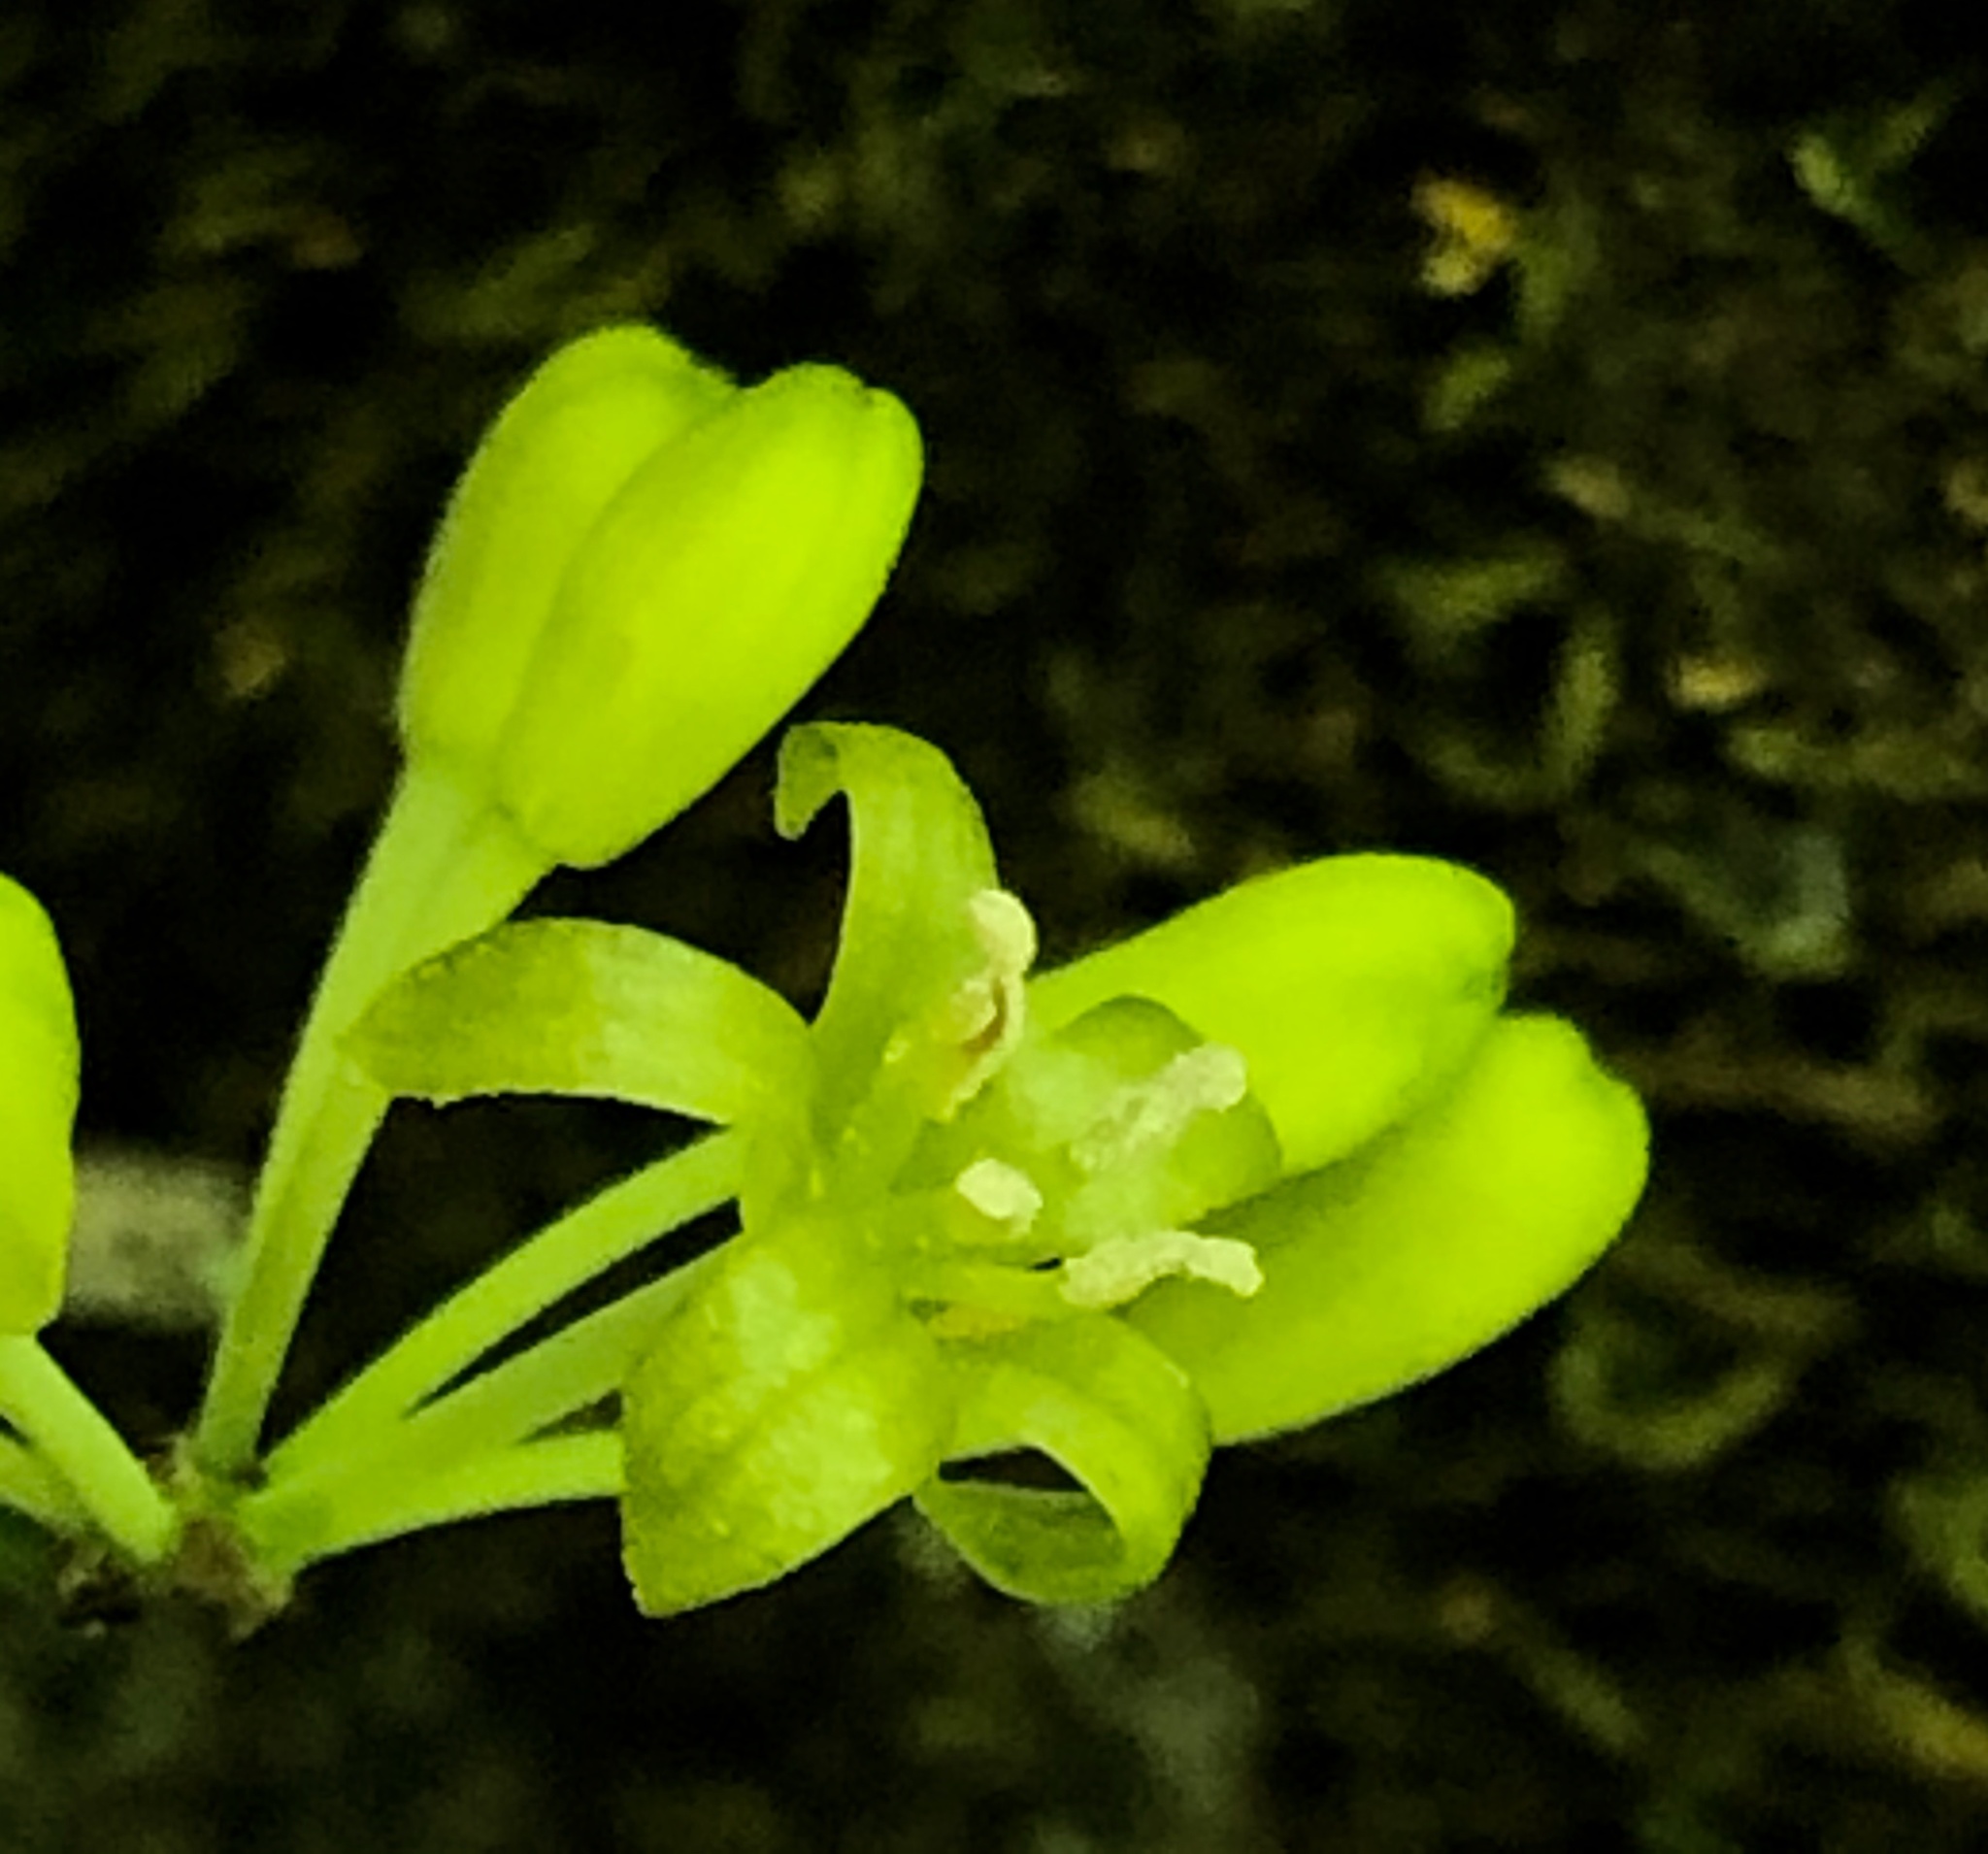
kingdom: Plantae
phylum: Tracheophyta
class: Liliopsida
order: Liliales
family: Smilacaceae
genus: Smilax
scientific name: Smilax rotundifolia
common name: Bullbriar
